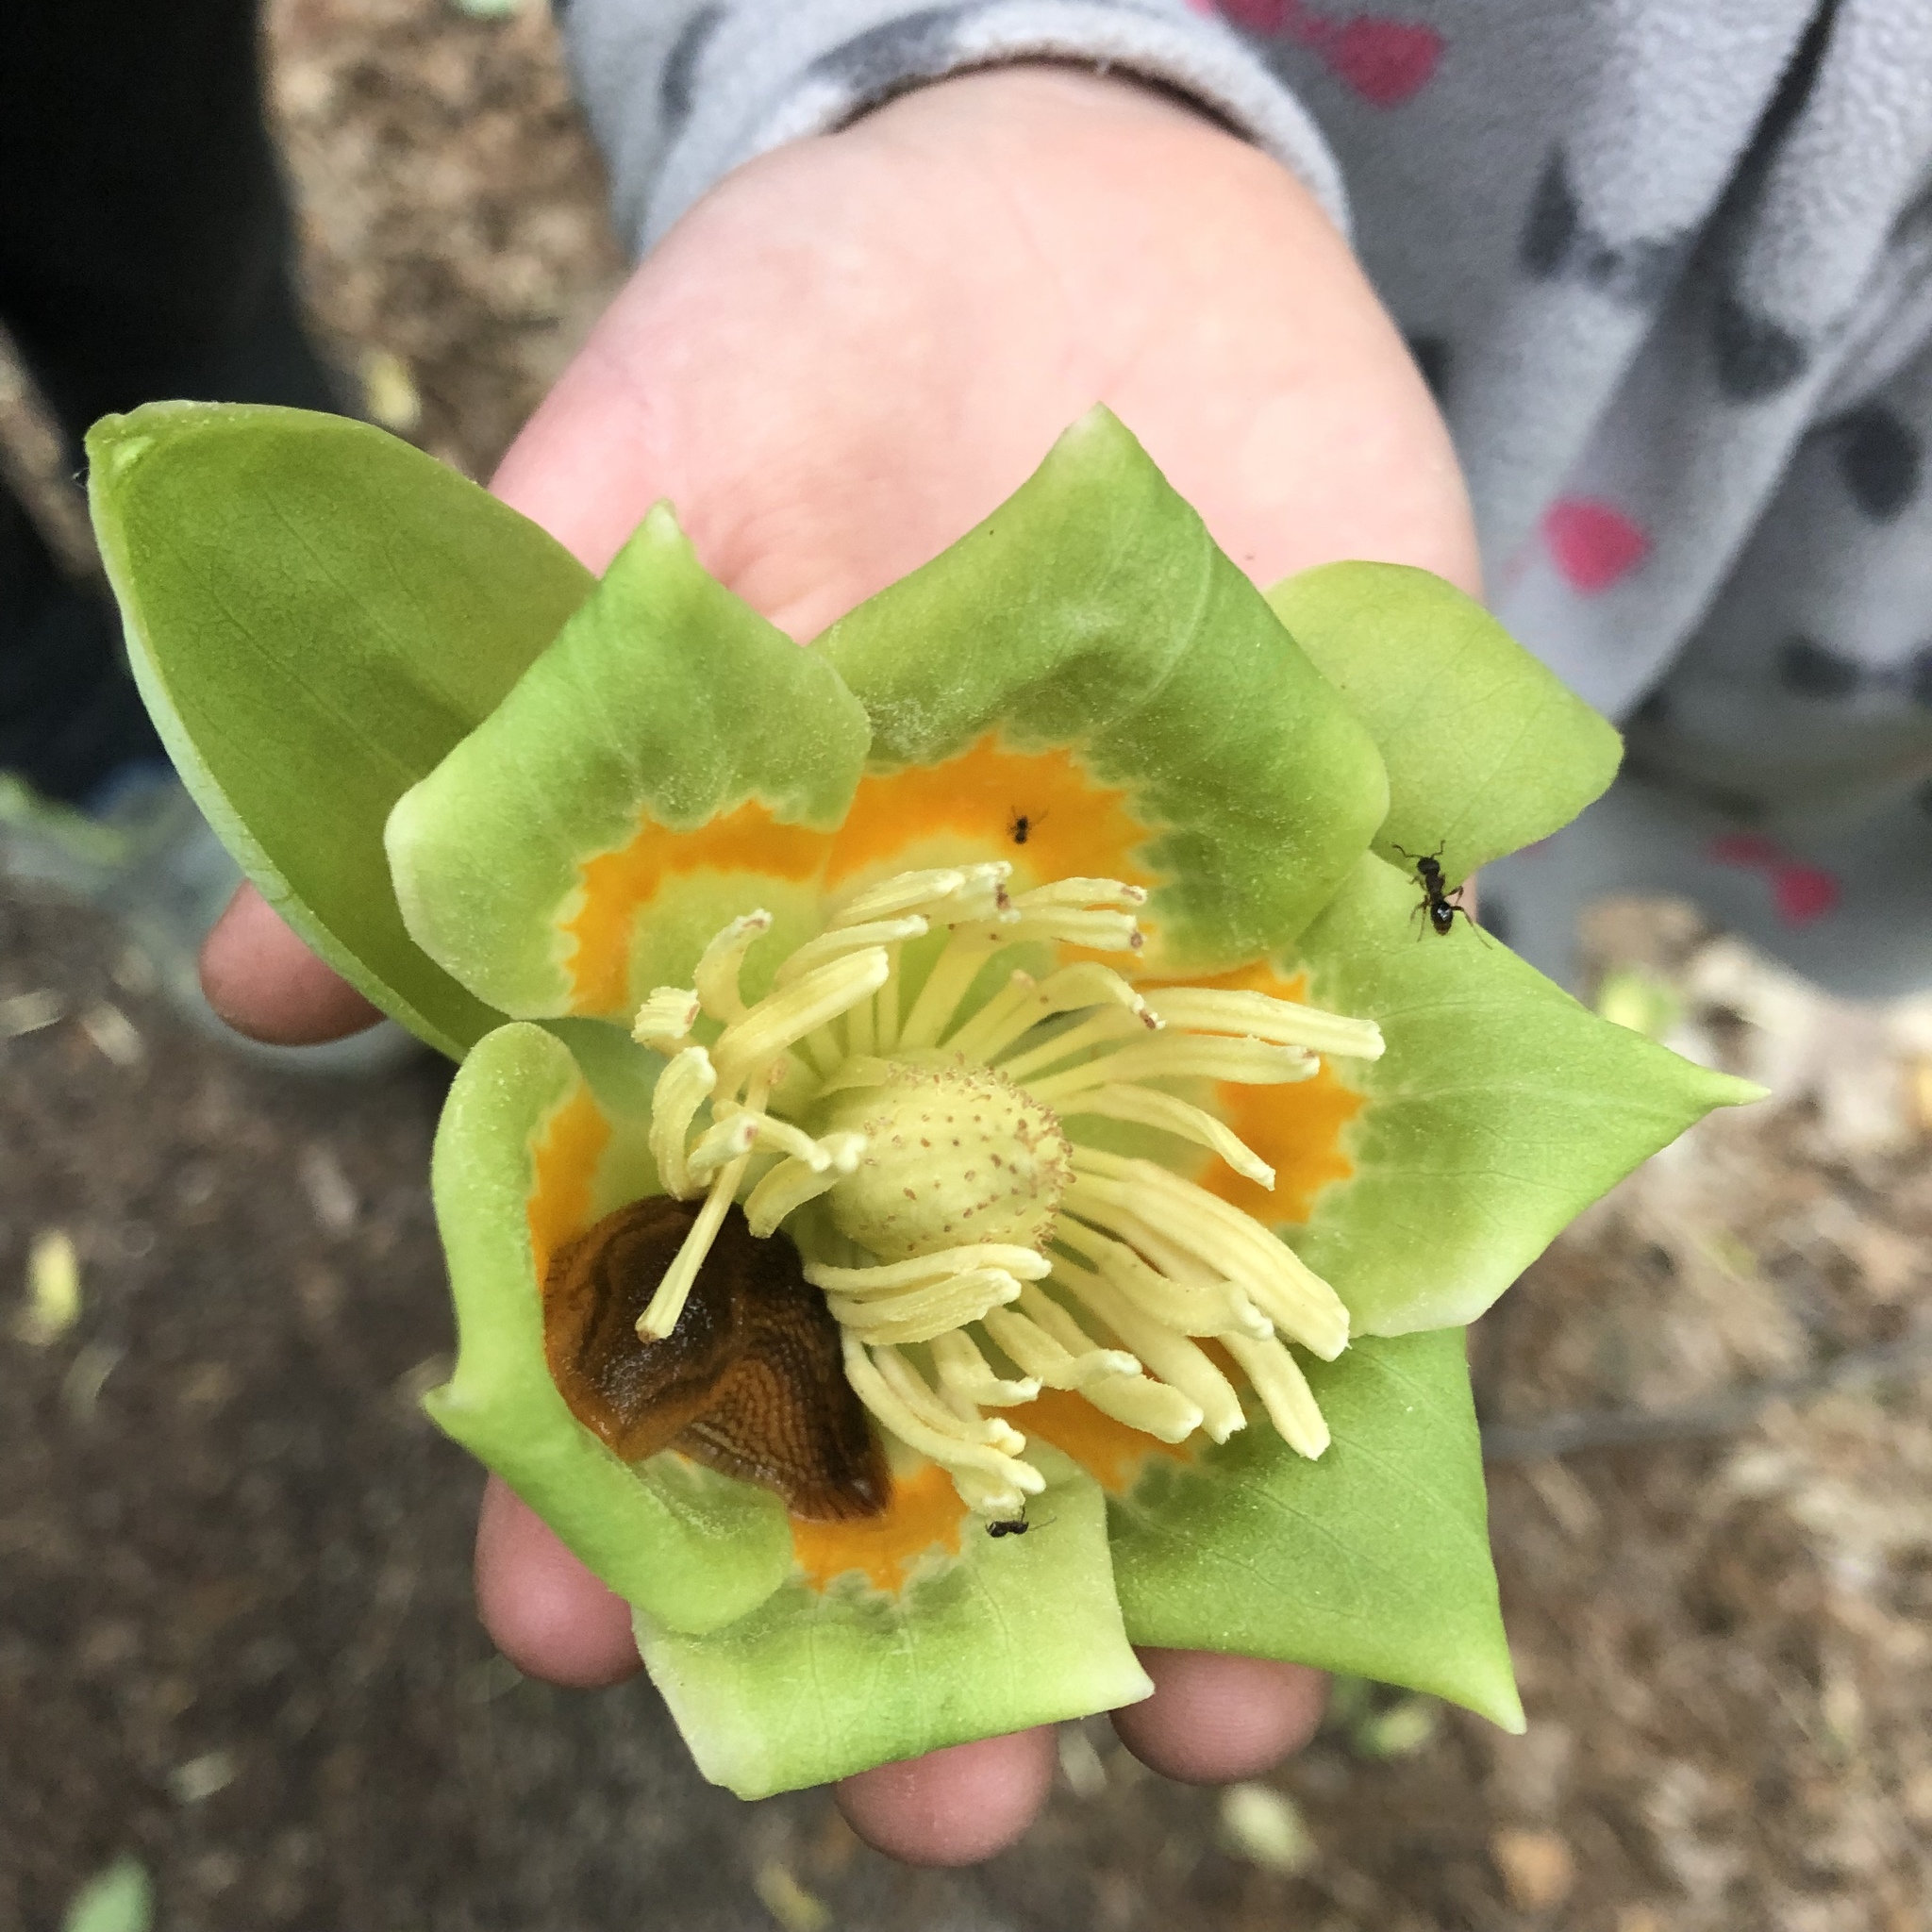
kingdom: Plantae
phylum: Tracheophyta
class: Magnoliopsida
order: Magnoliales
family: Magnoliaceae
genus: Liriodendron
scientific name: Liriodendron tulipifera
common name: Tulip tree
